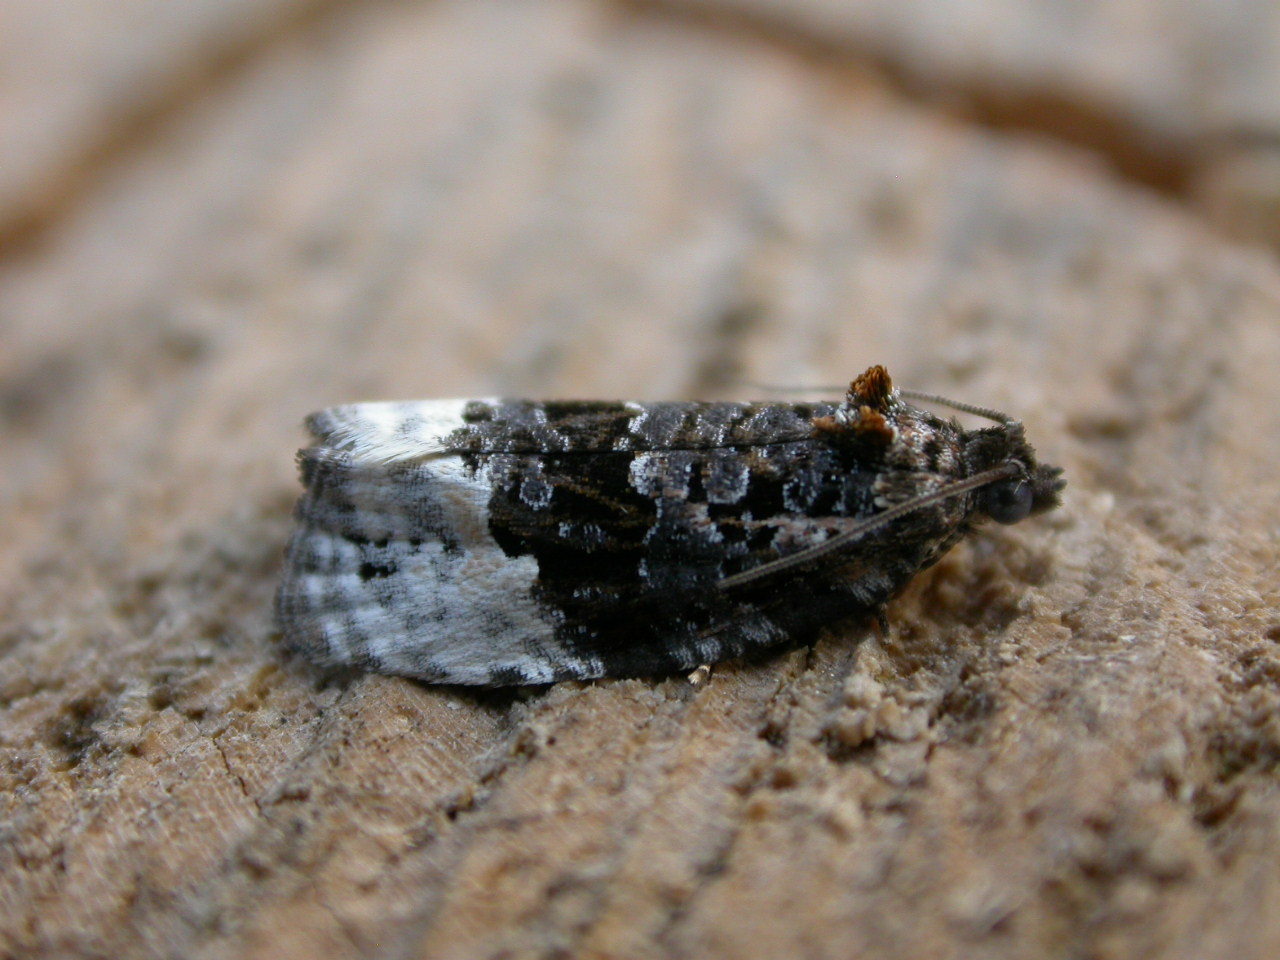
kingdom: Animalia
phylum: Arthropoda
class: Insecta
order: Lepidoptera
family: Tortricidae
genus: Apotomis
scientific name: Apotomis betuletana
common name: Birch marble
